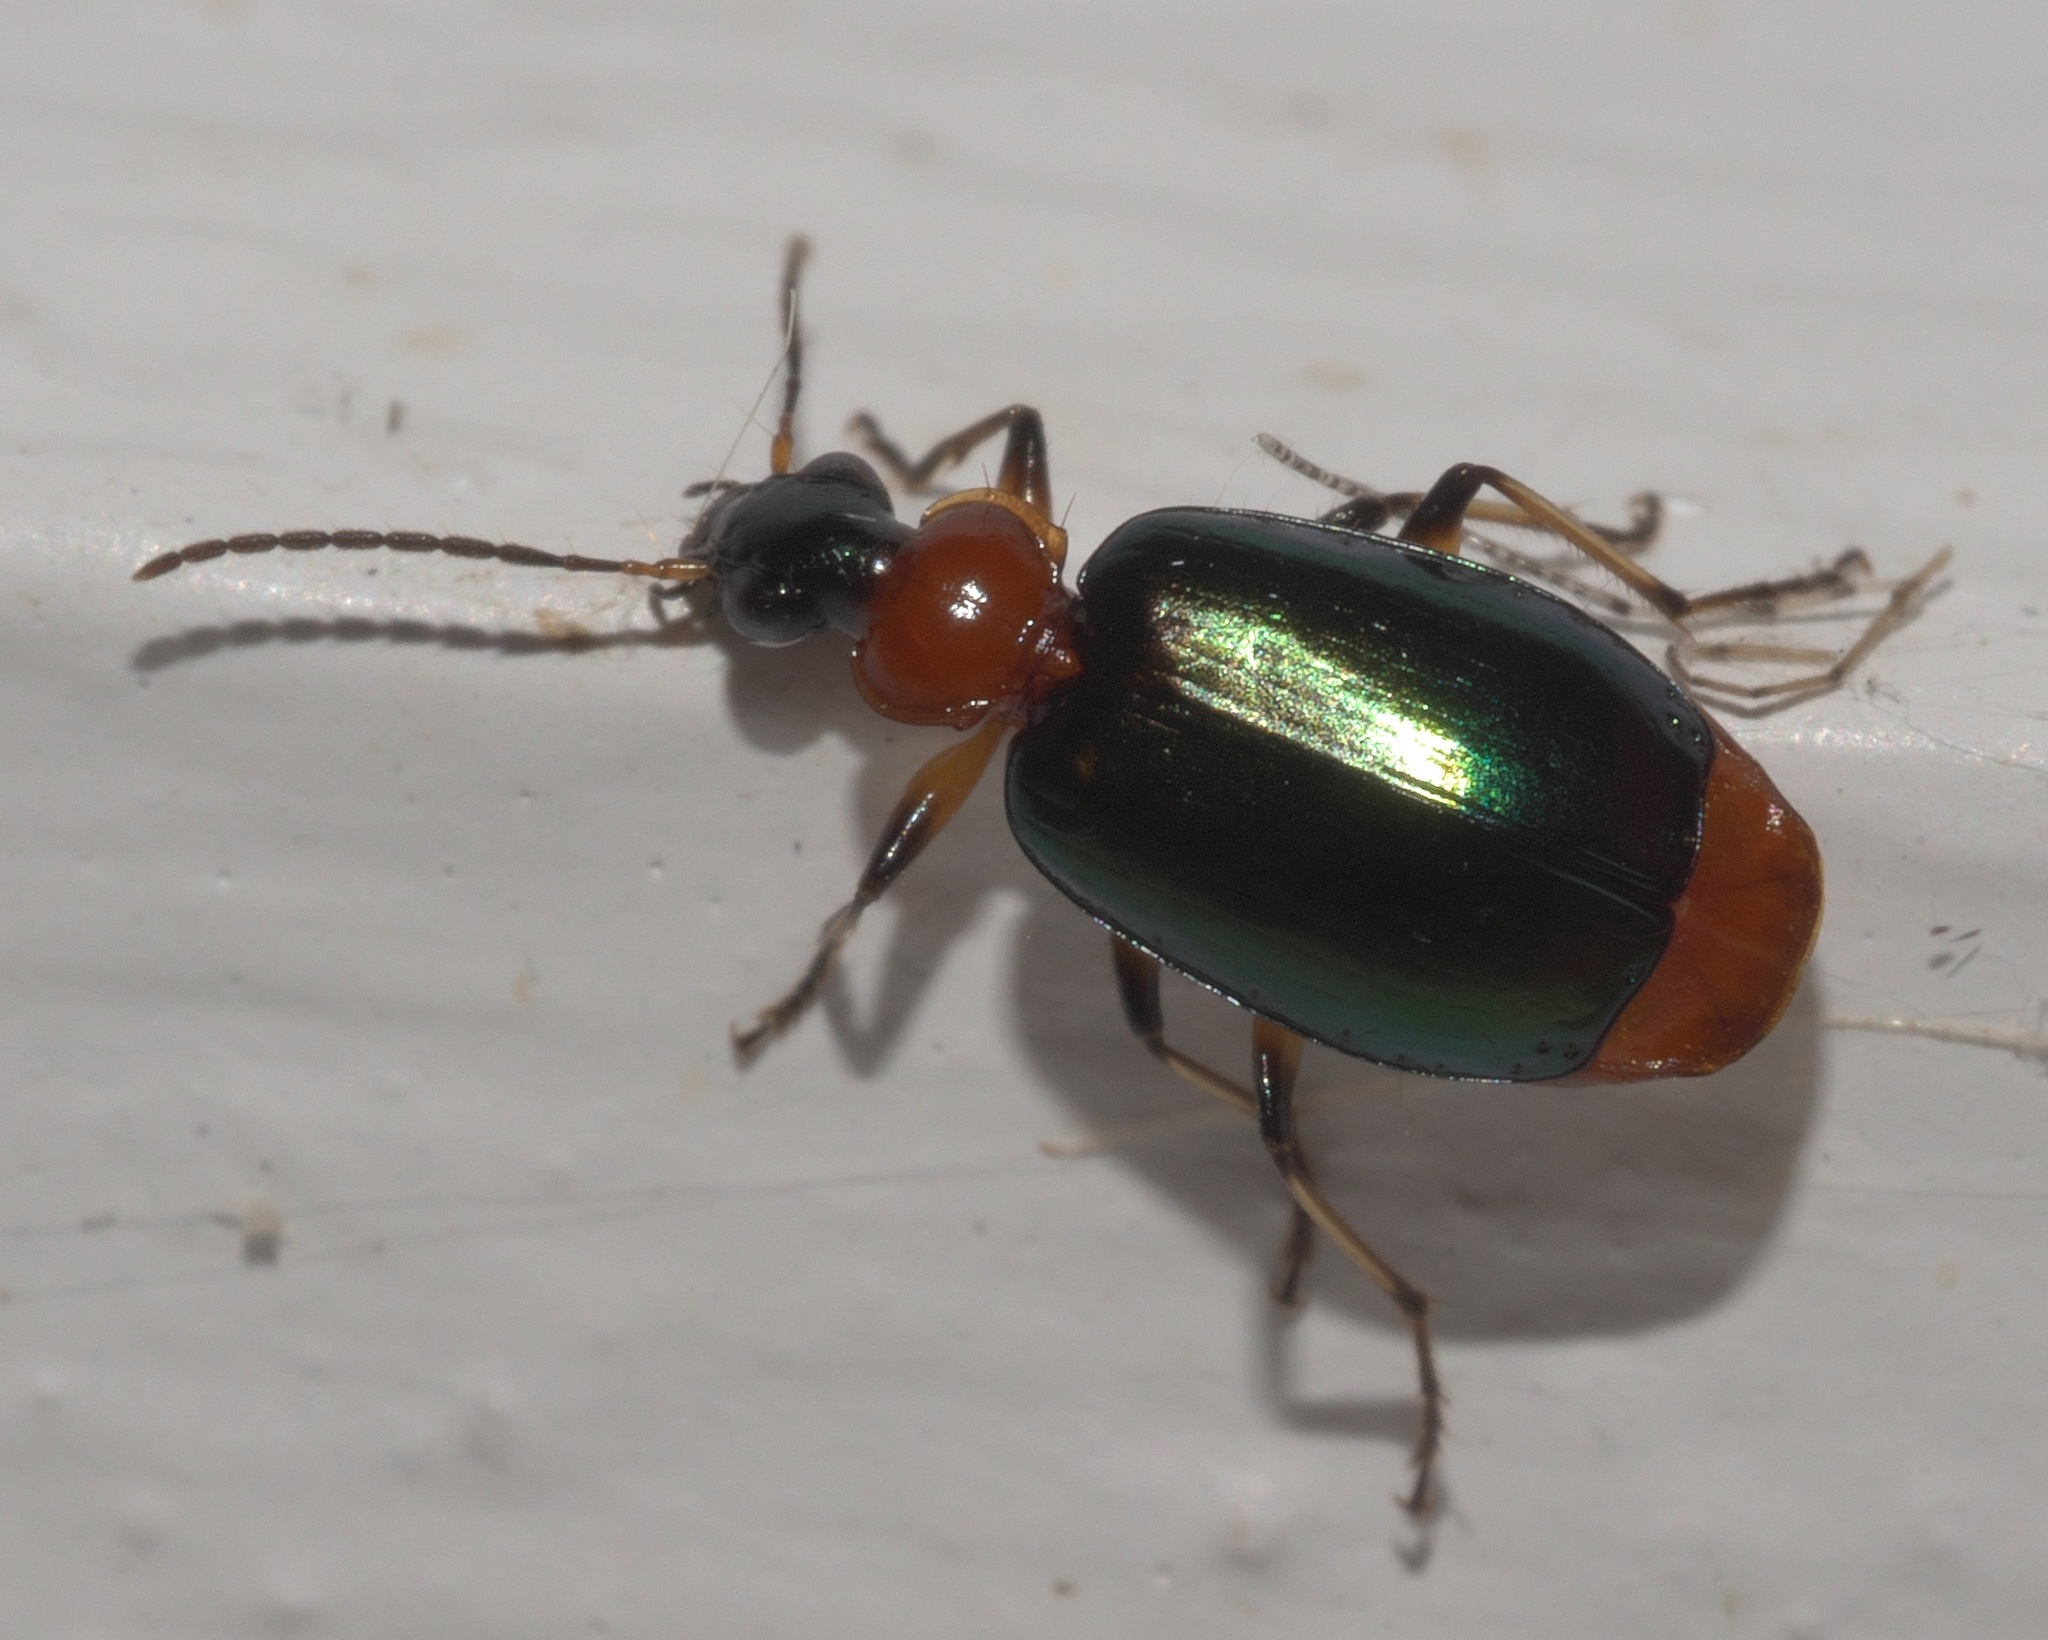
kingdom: Animalia
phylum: Arthropoda
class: Insecta
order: Coleoptera
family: Carabidae
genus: Lebia
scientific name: Lebia viridipennis
